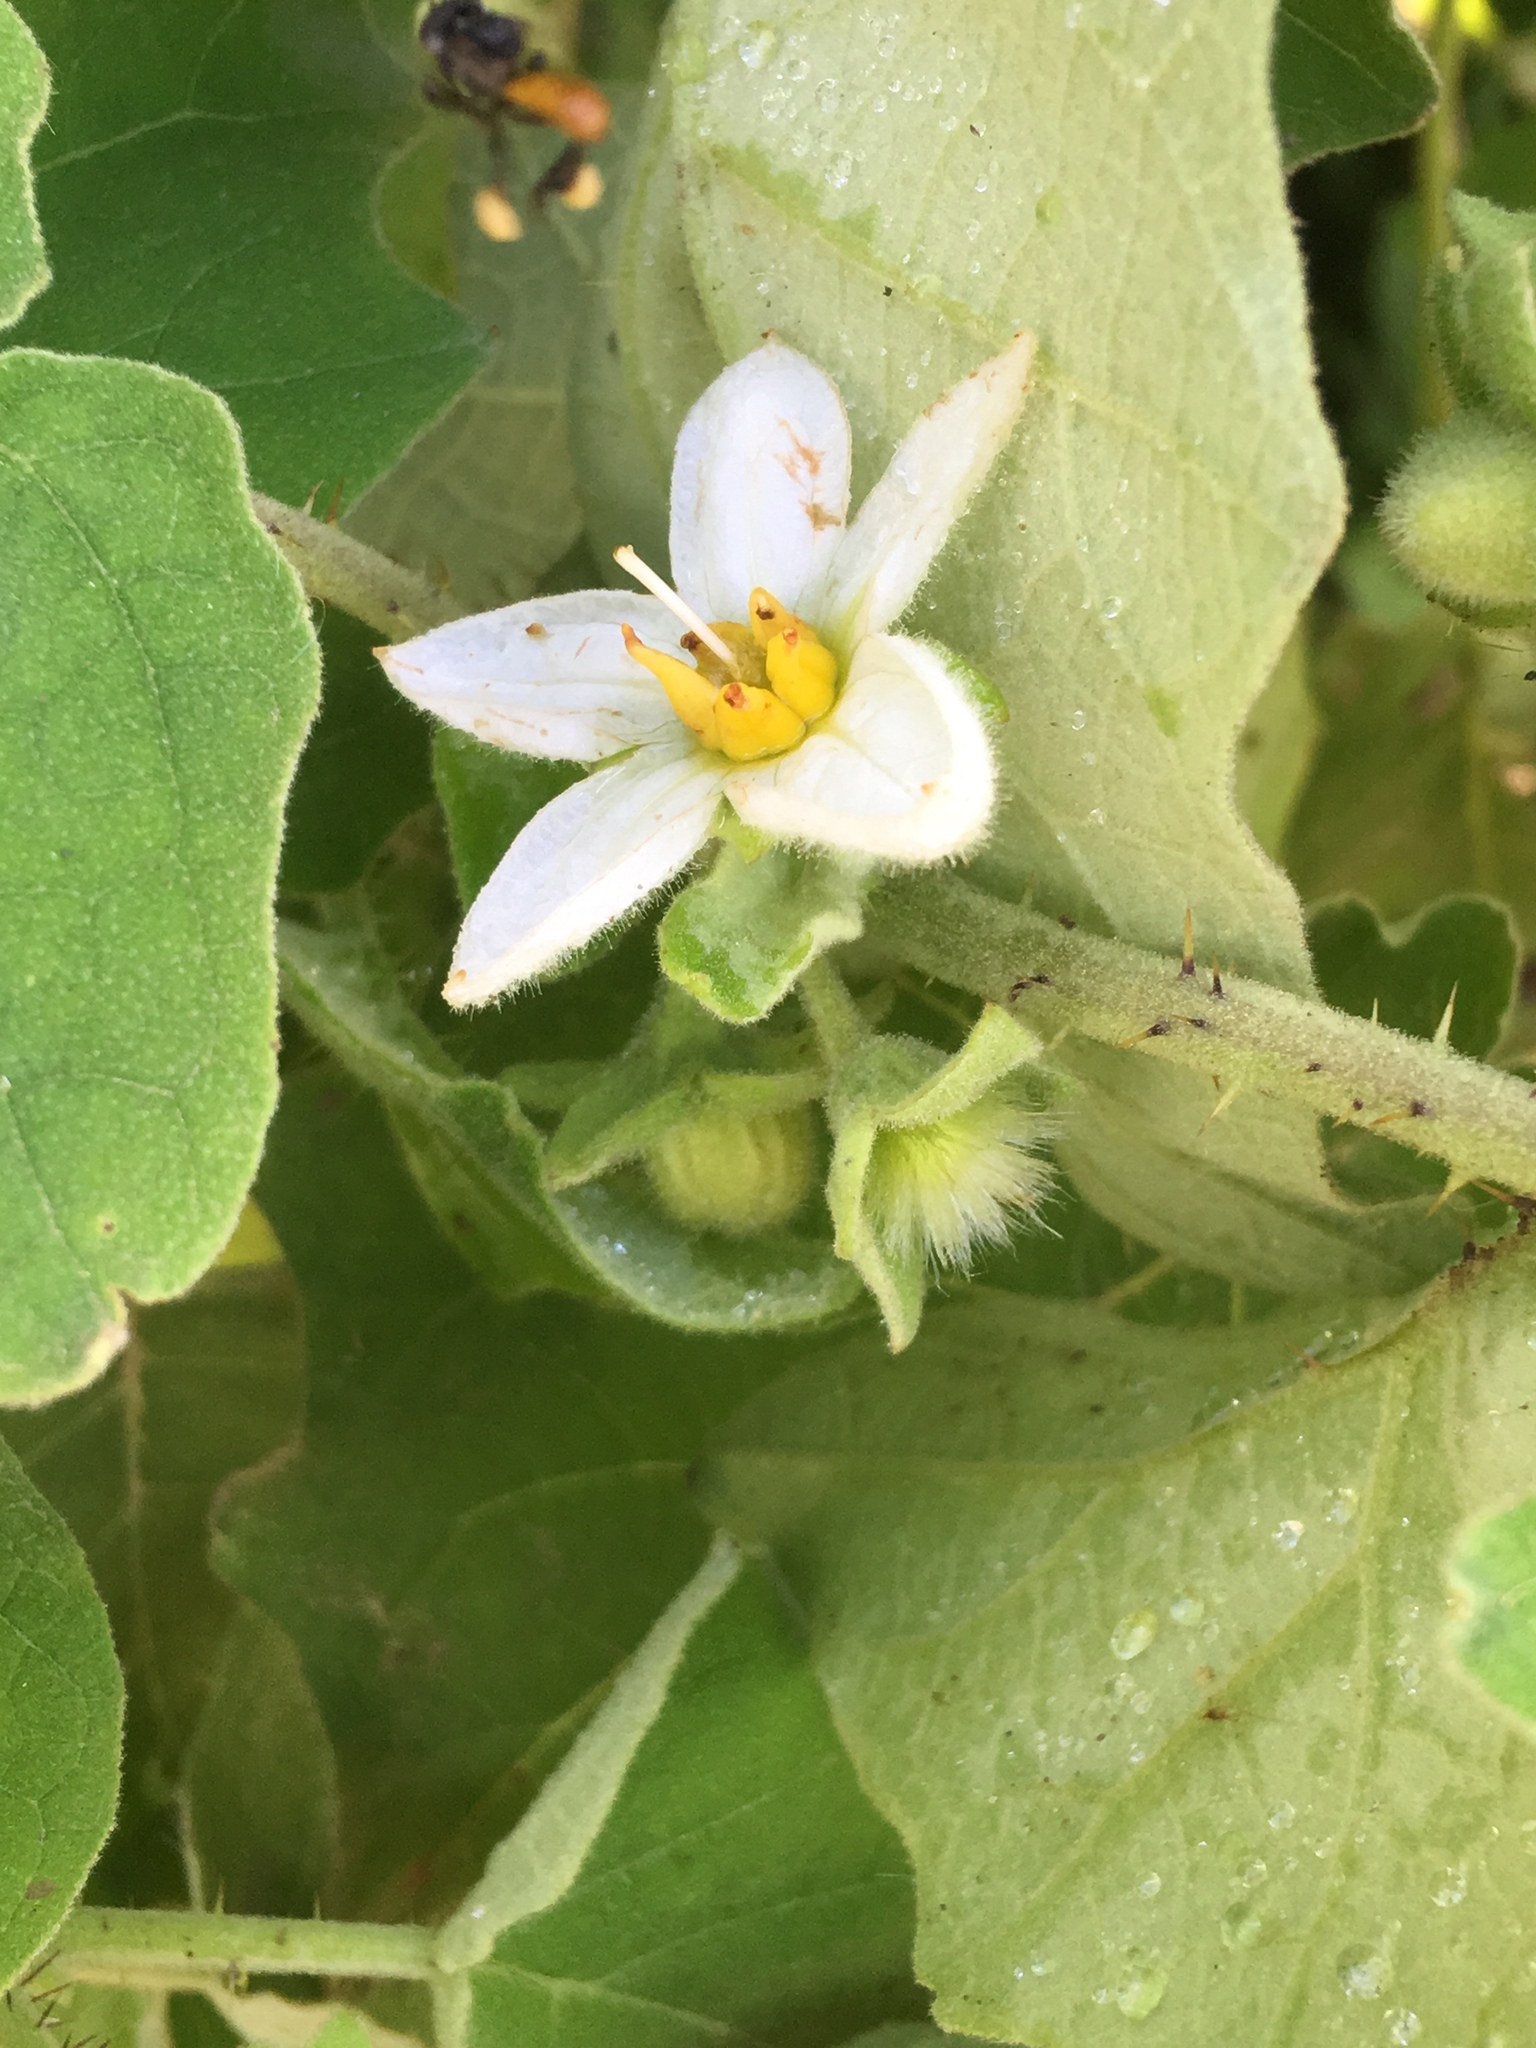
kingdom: Plantae
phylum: Tracheophyta
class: Magnoliopsida
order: Solanales
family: Solanaceae
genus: Solanum
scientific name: Solanum hirtum
